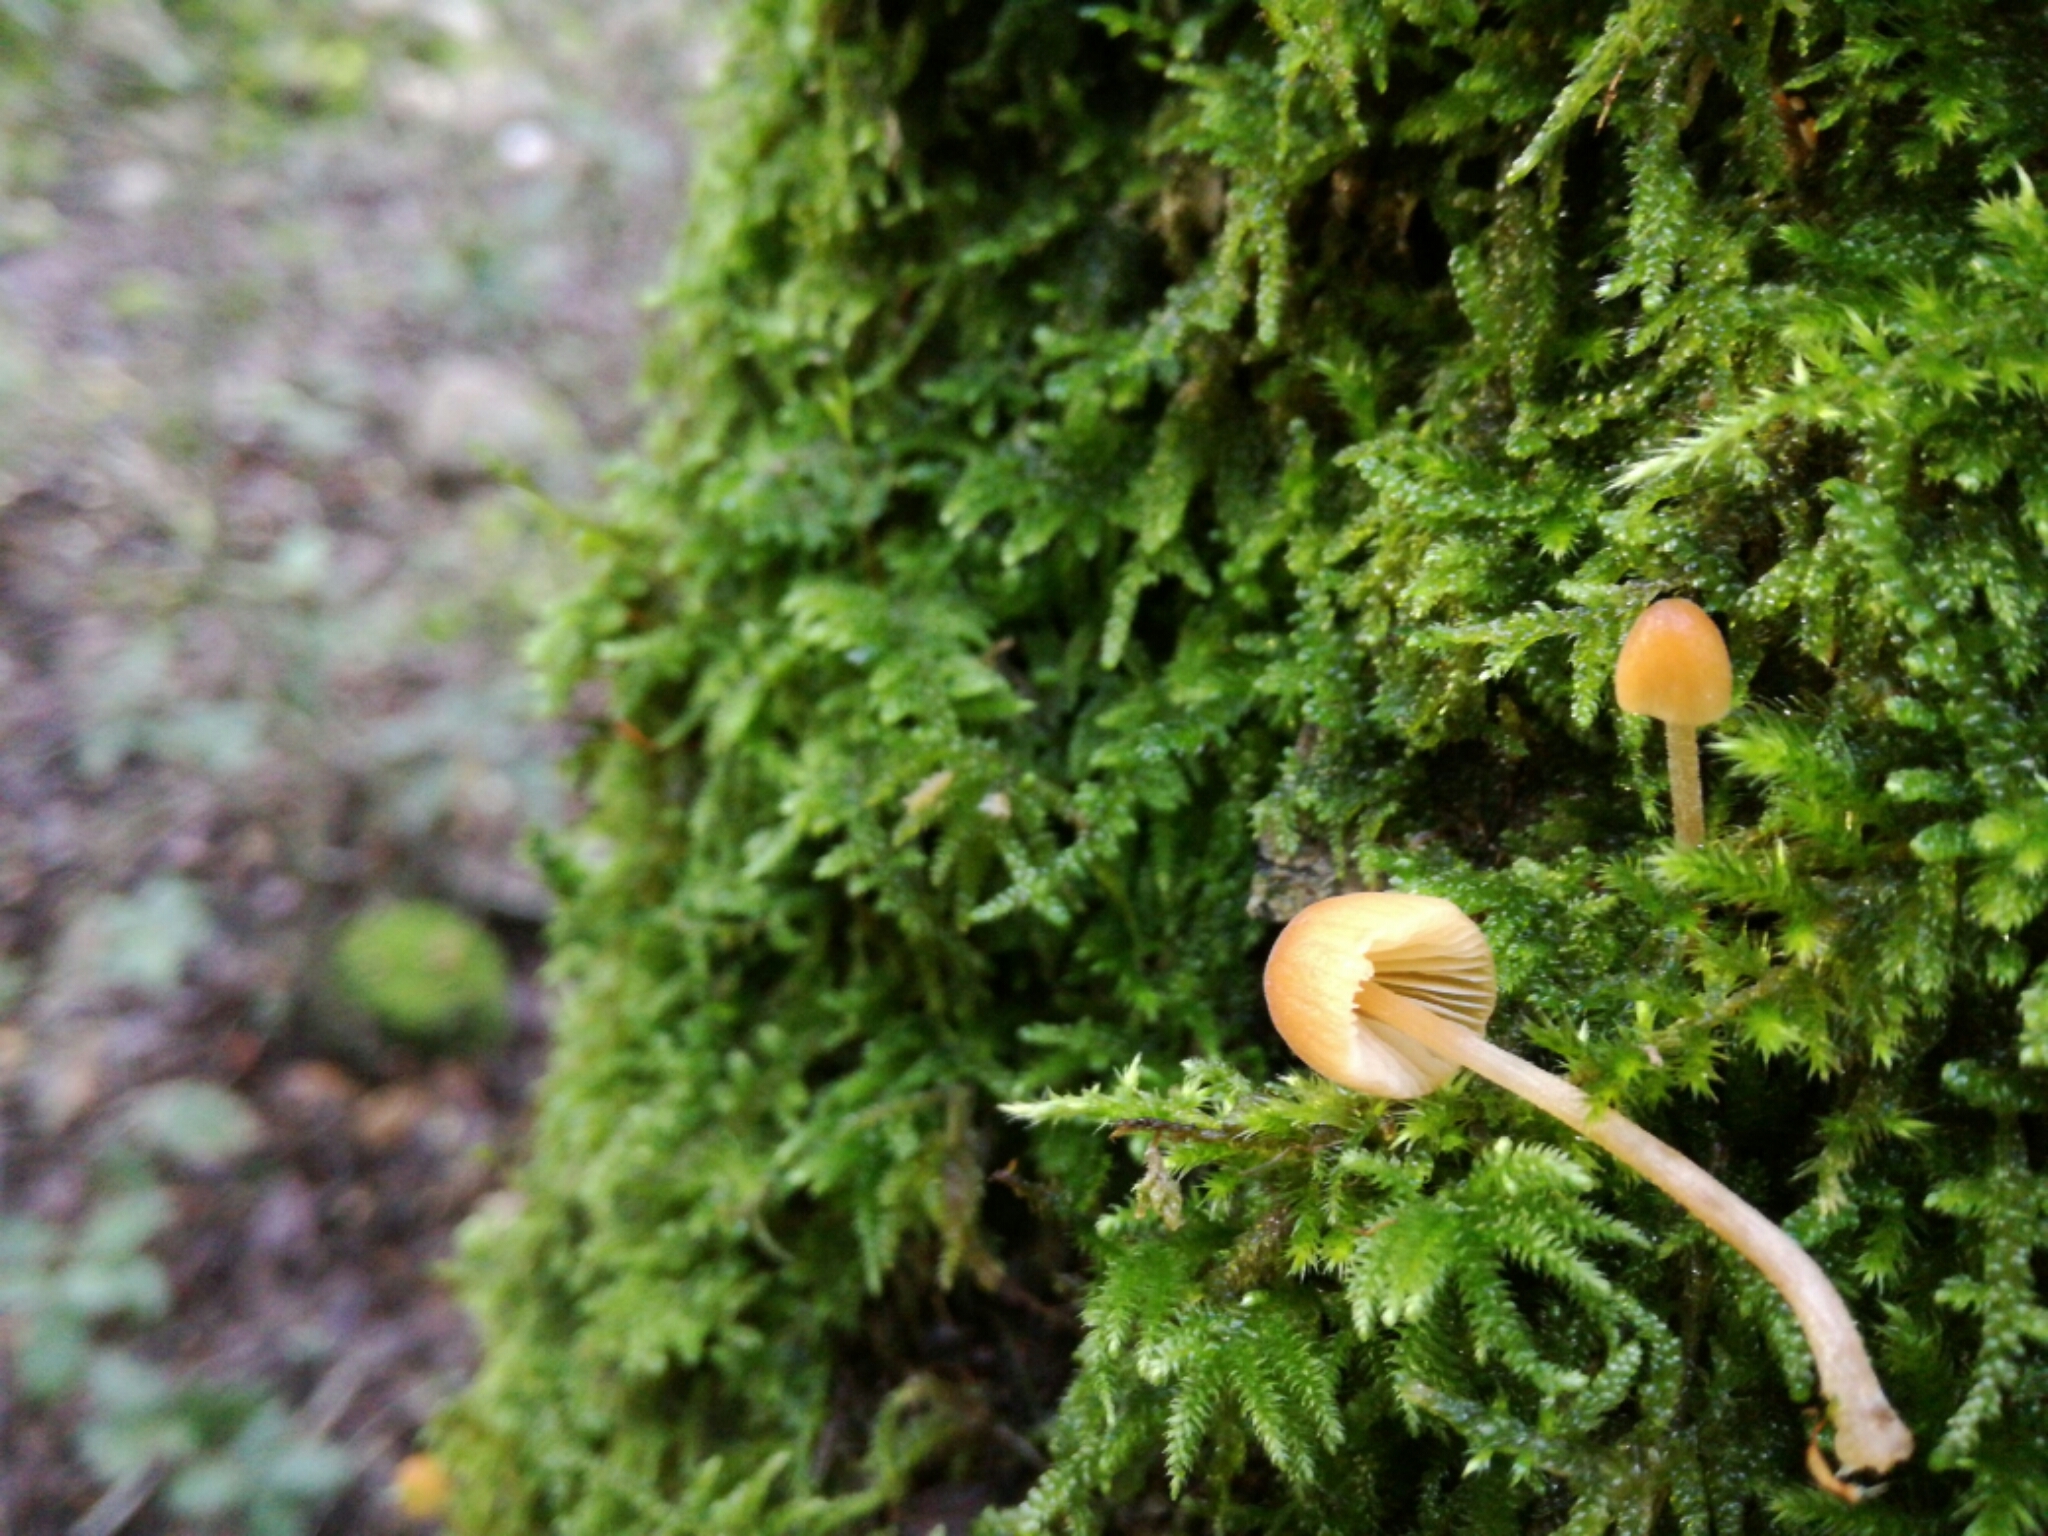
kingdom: Fungi
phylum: Basidiomycota
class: Agaricomycetes
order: Agaricales
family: Mycenaceae
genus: Atheniella
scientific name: Atheniella leptophylla
